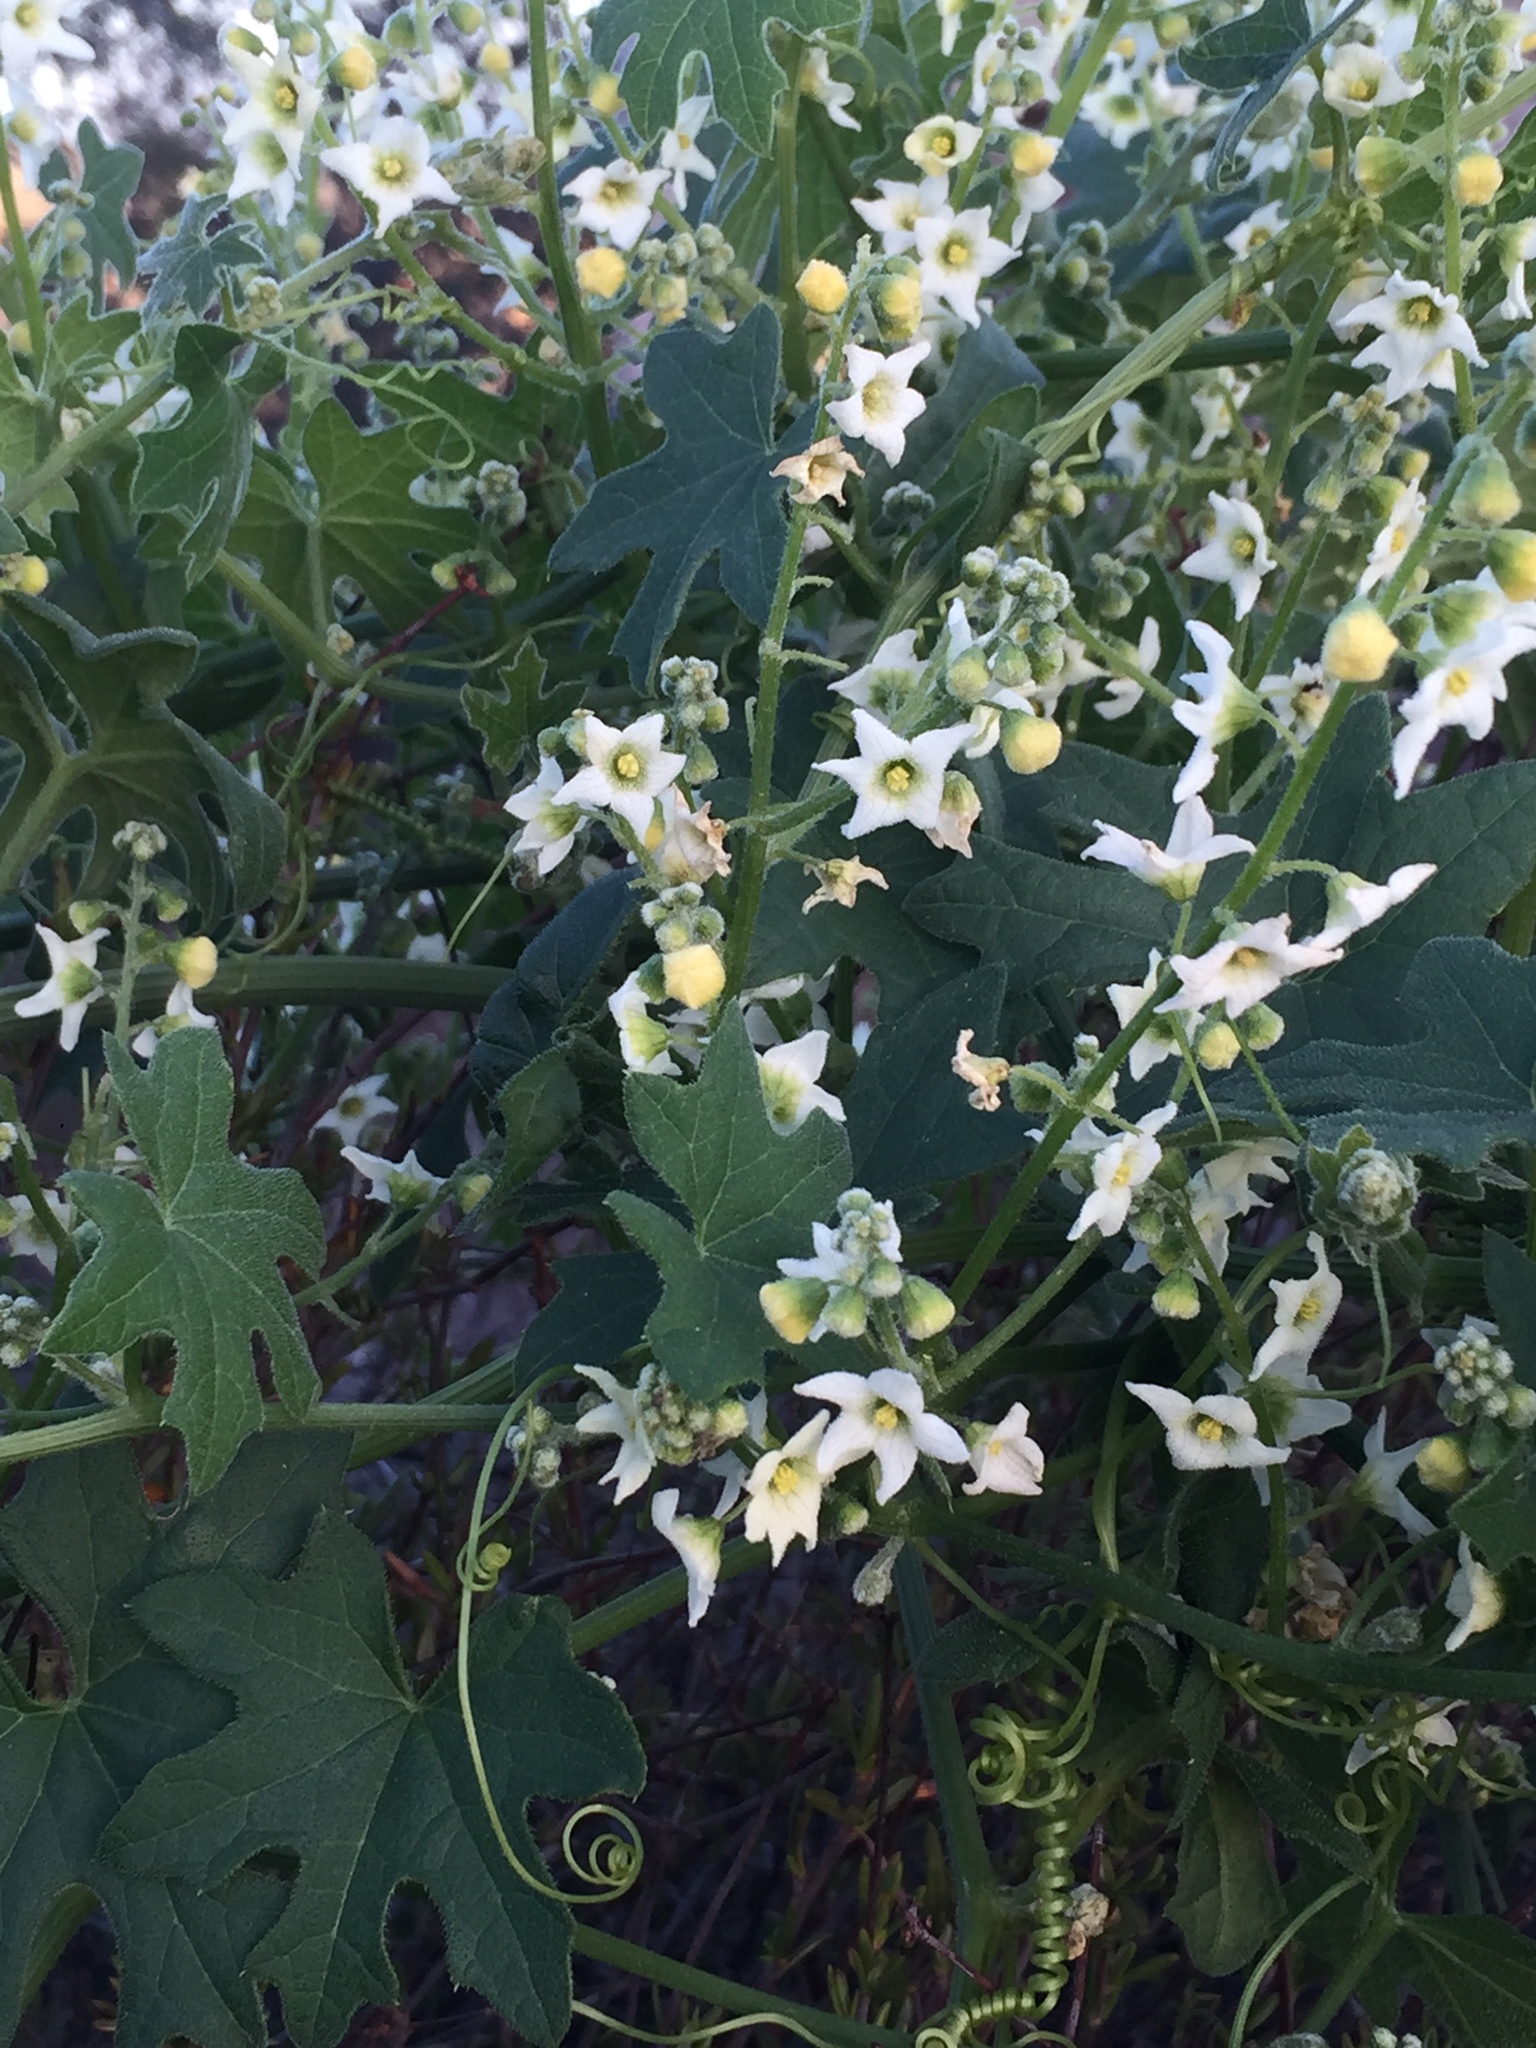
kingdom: Plantae
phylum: Tracheophyta
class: Magnoliopsida
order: Cucurbitales
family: Cucurbitaceae
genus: Marah
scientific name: Marah macrocarpa
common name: Cucamonga manroot
